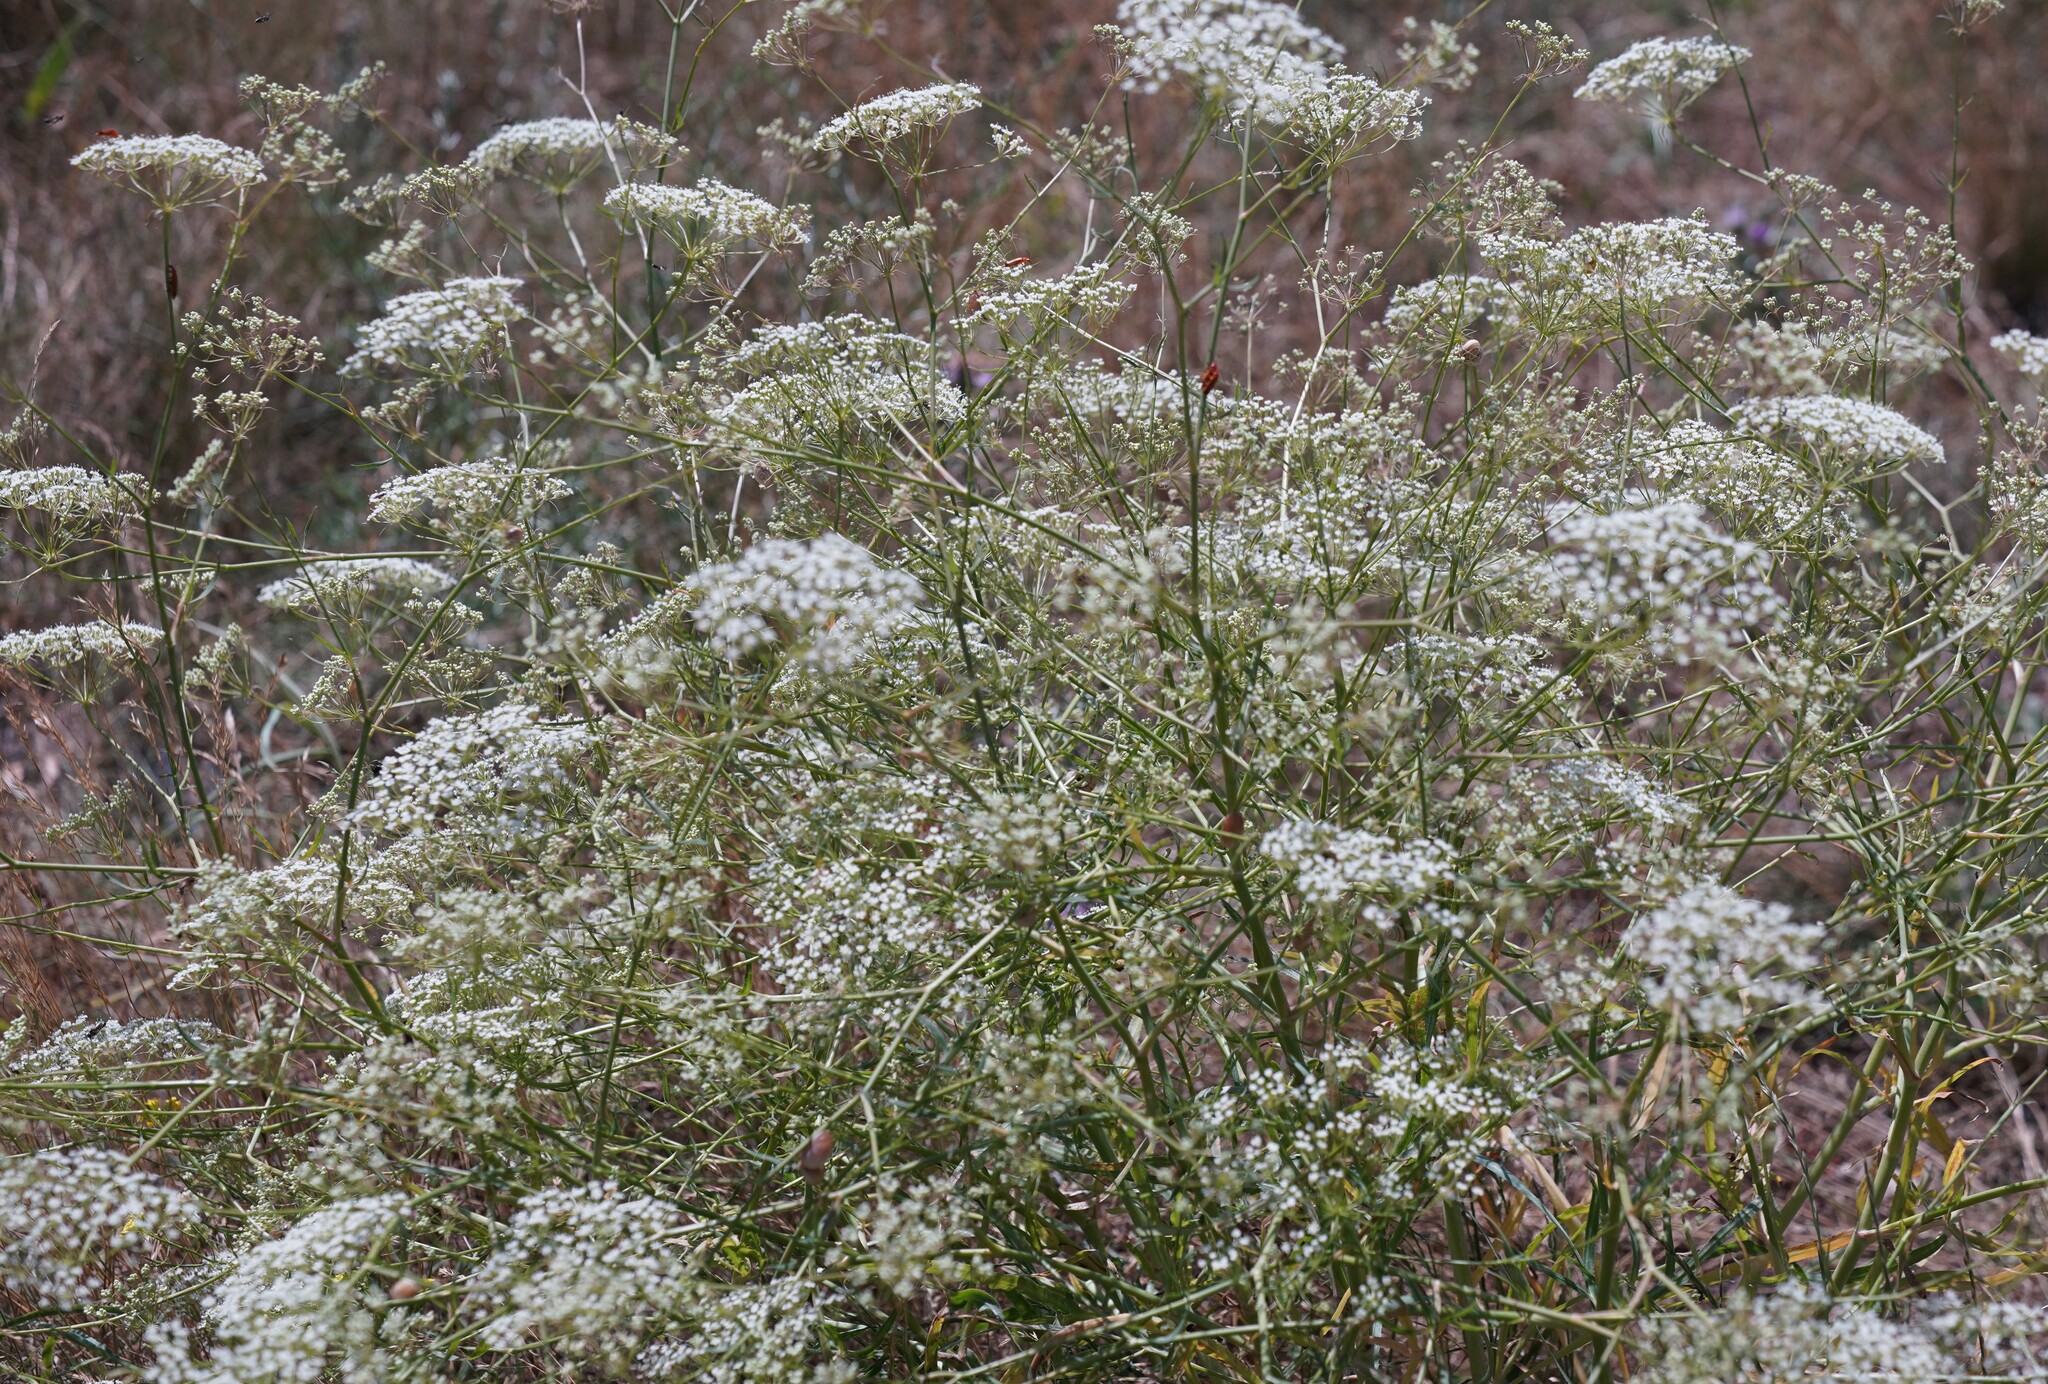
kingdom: Plantae
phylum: Tracheophyta
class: Magnoliopsida
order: Apiales
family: Apiaceae
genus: Falcaria
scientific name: Falcaria vulgaris
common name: Longleaf
